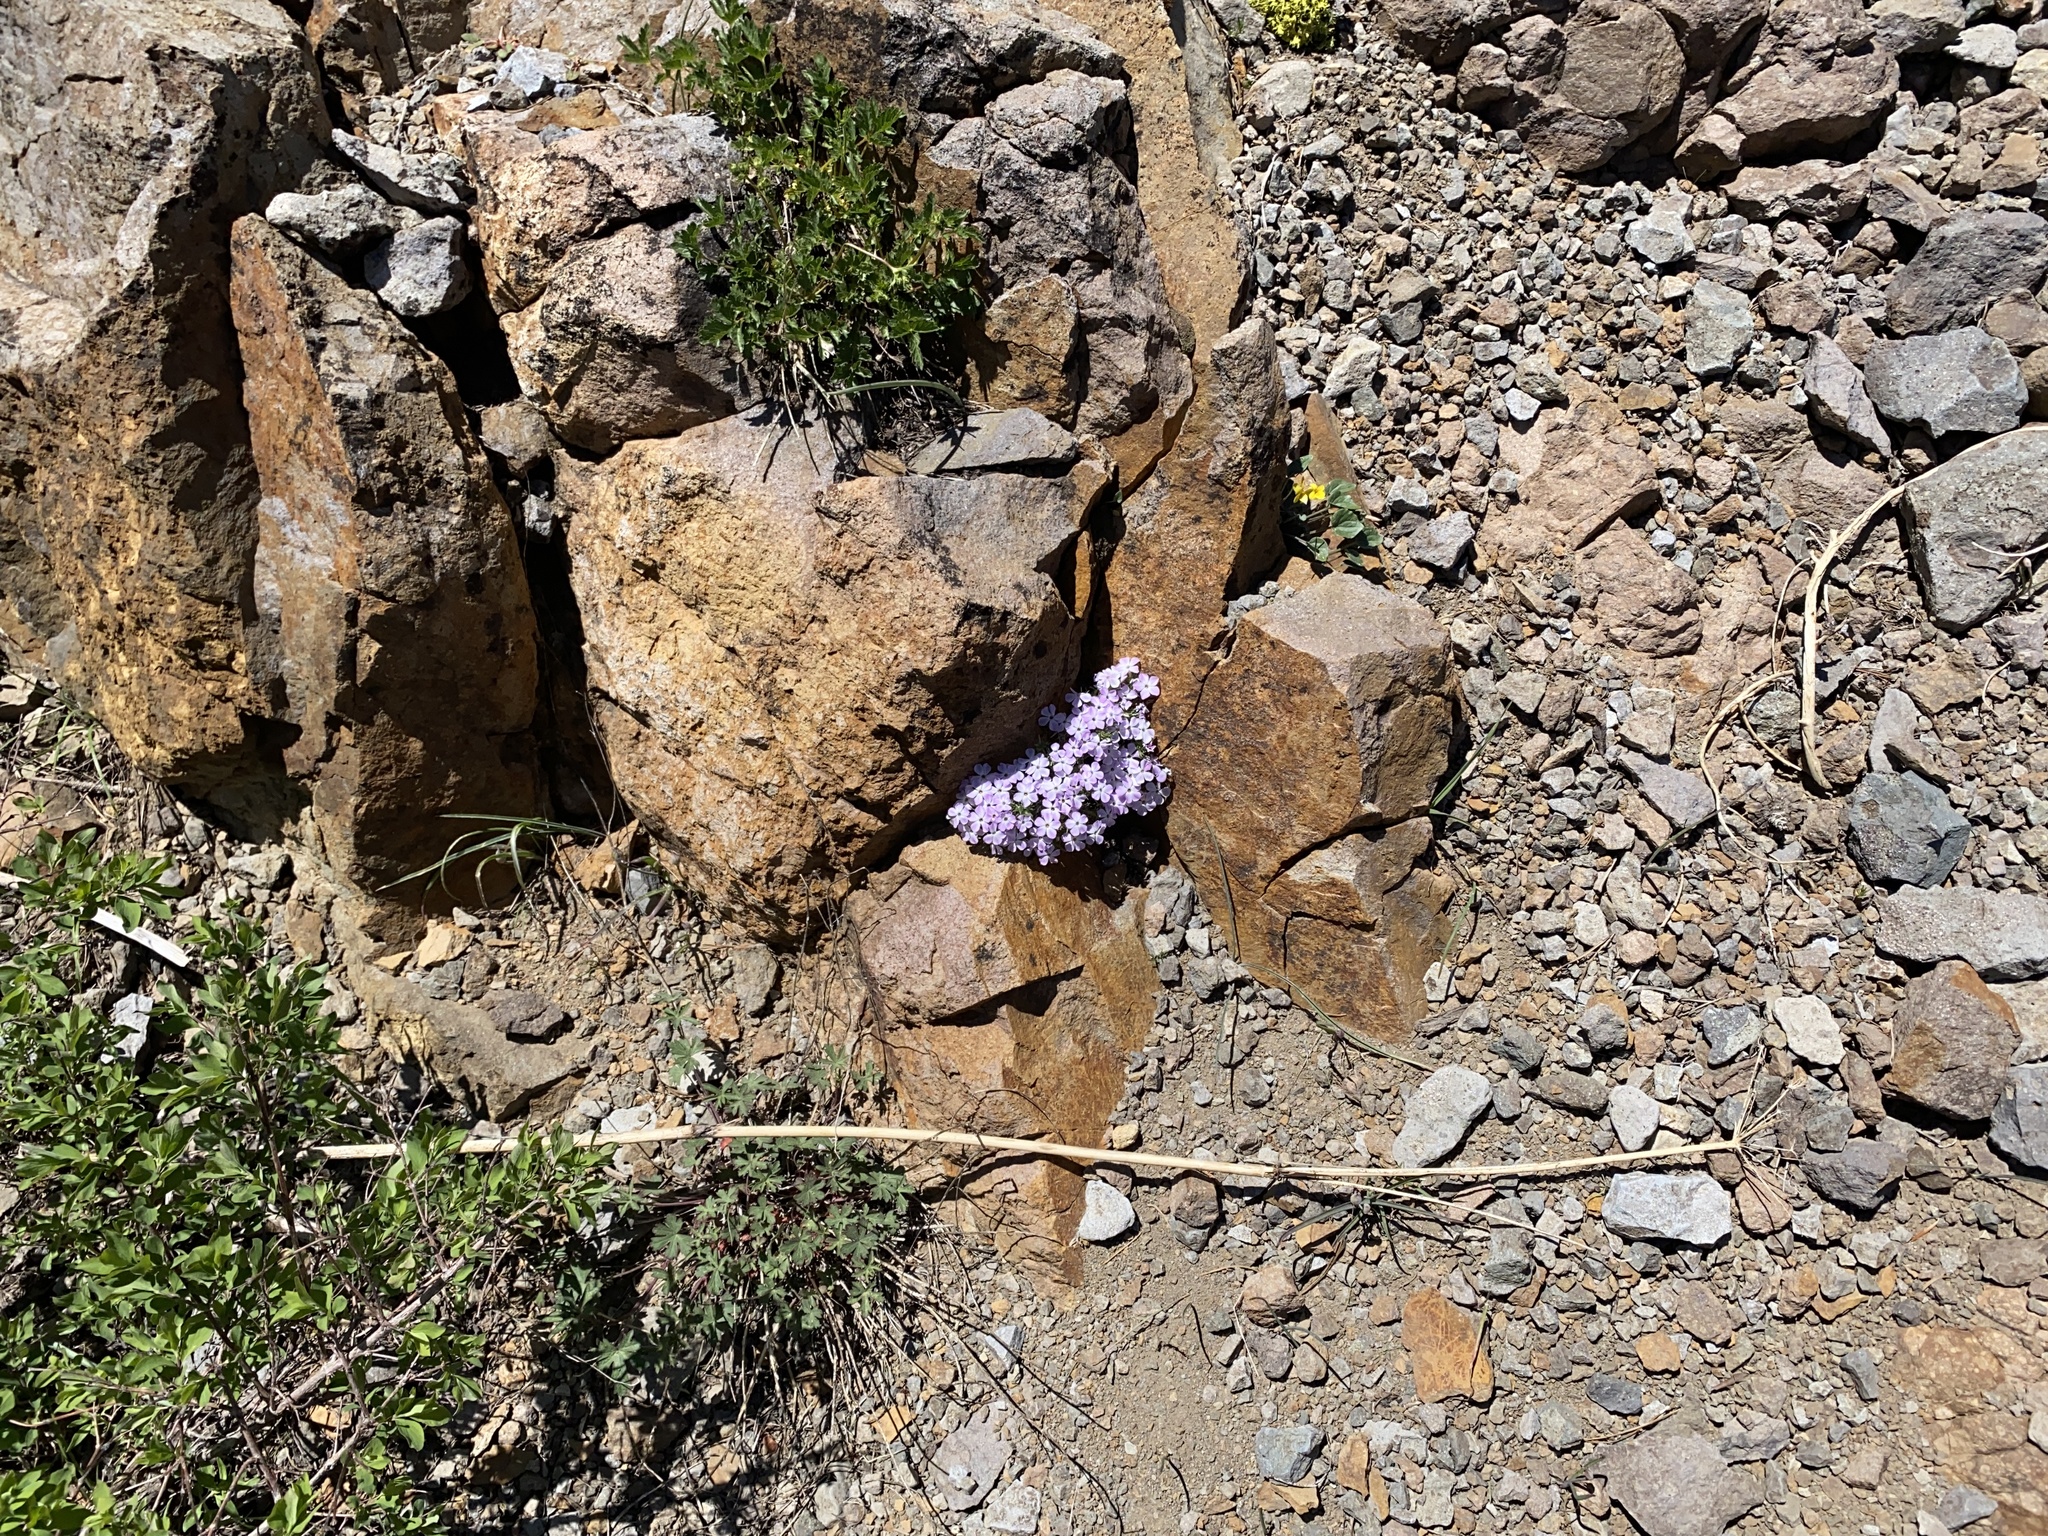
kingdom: Plantae
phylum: Tracheophyta
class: Magnoliopsida
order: Ericales
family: Polemoniaceae
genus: Phlox
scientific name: Phlox diffusa
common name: Mat phlox
